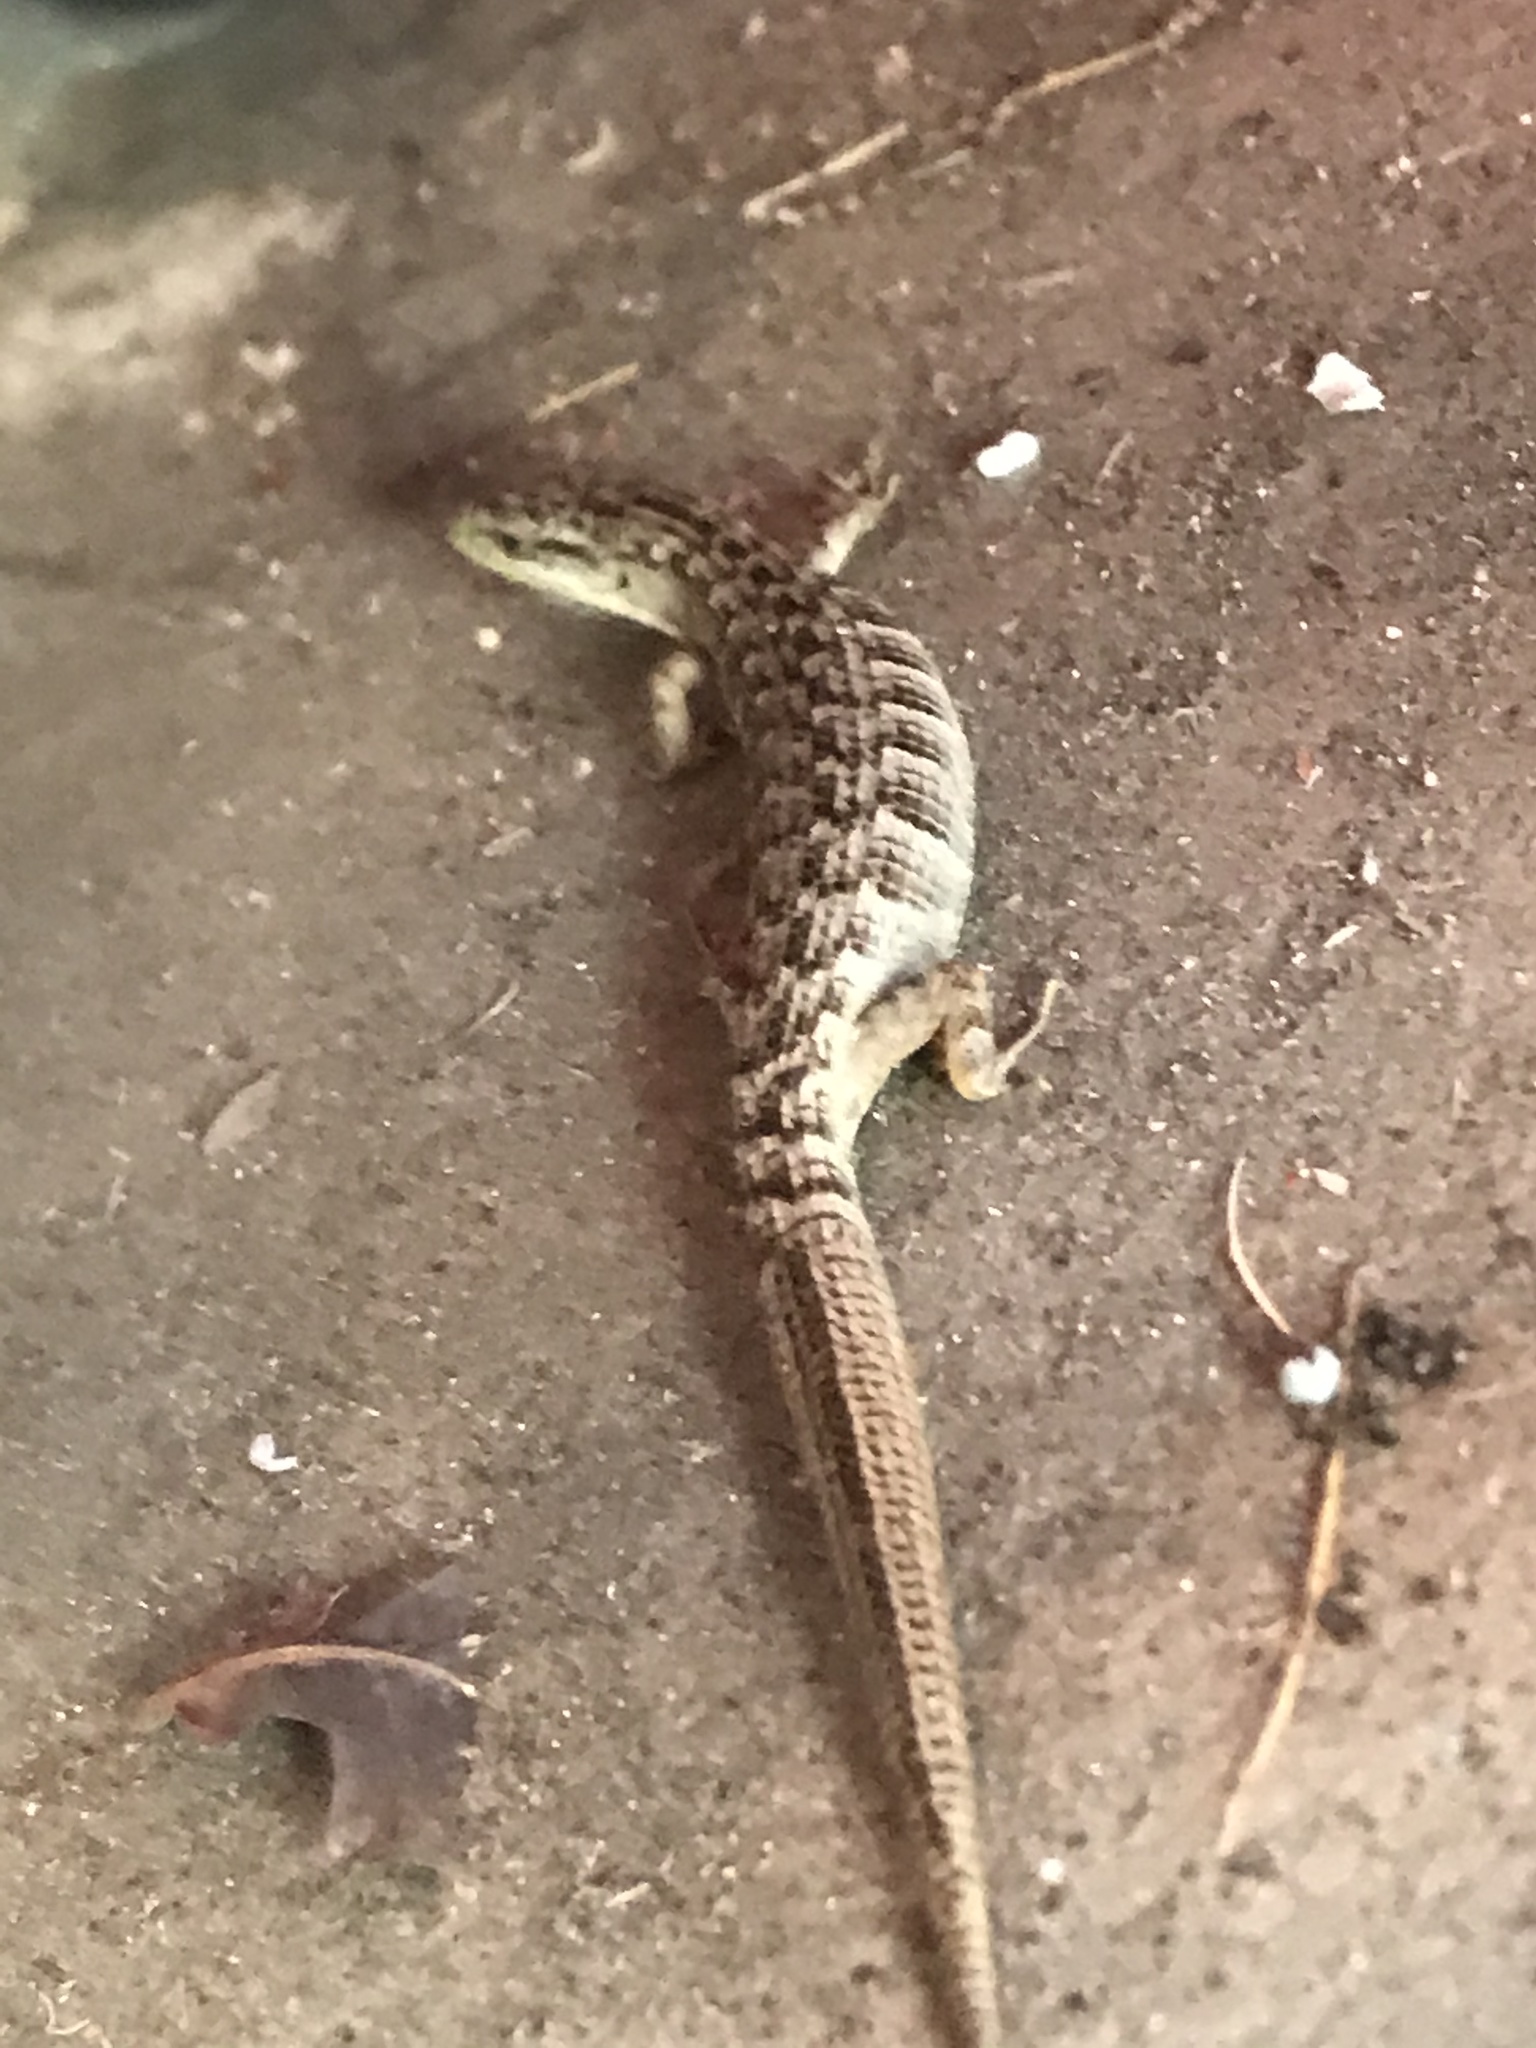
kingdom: Animalia
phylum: Chordata
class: Squamata
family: Anguidae
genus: Elgaria
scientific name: Elgaria multicarinata
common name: Southern alligator lizard
